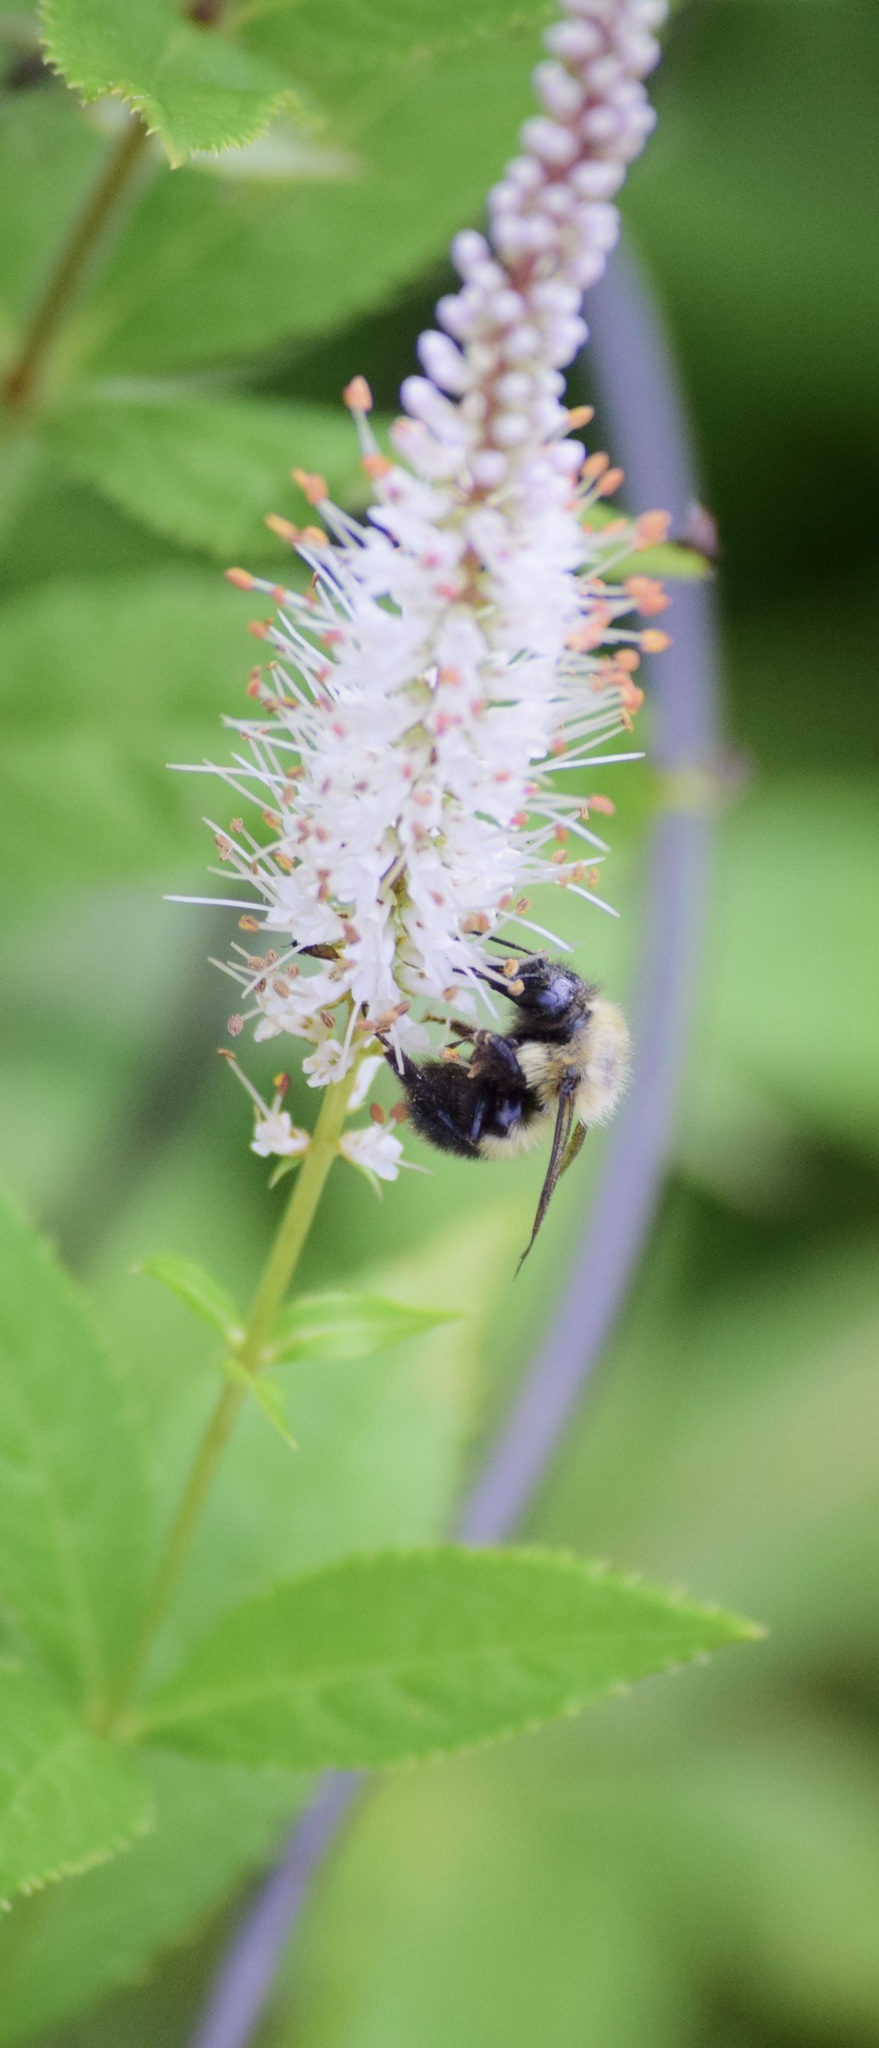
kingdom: Animalia
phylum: Arthropoda
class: Insecta
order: Hymenoptera
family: Apidae
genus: Pyrobombus
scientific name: Pyrobombus
